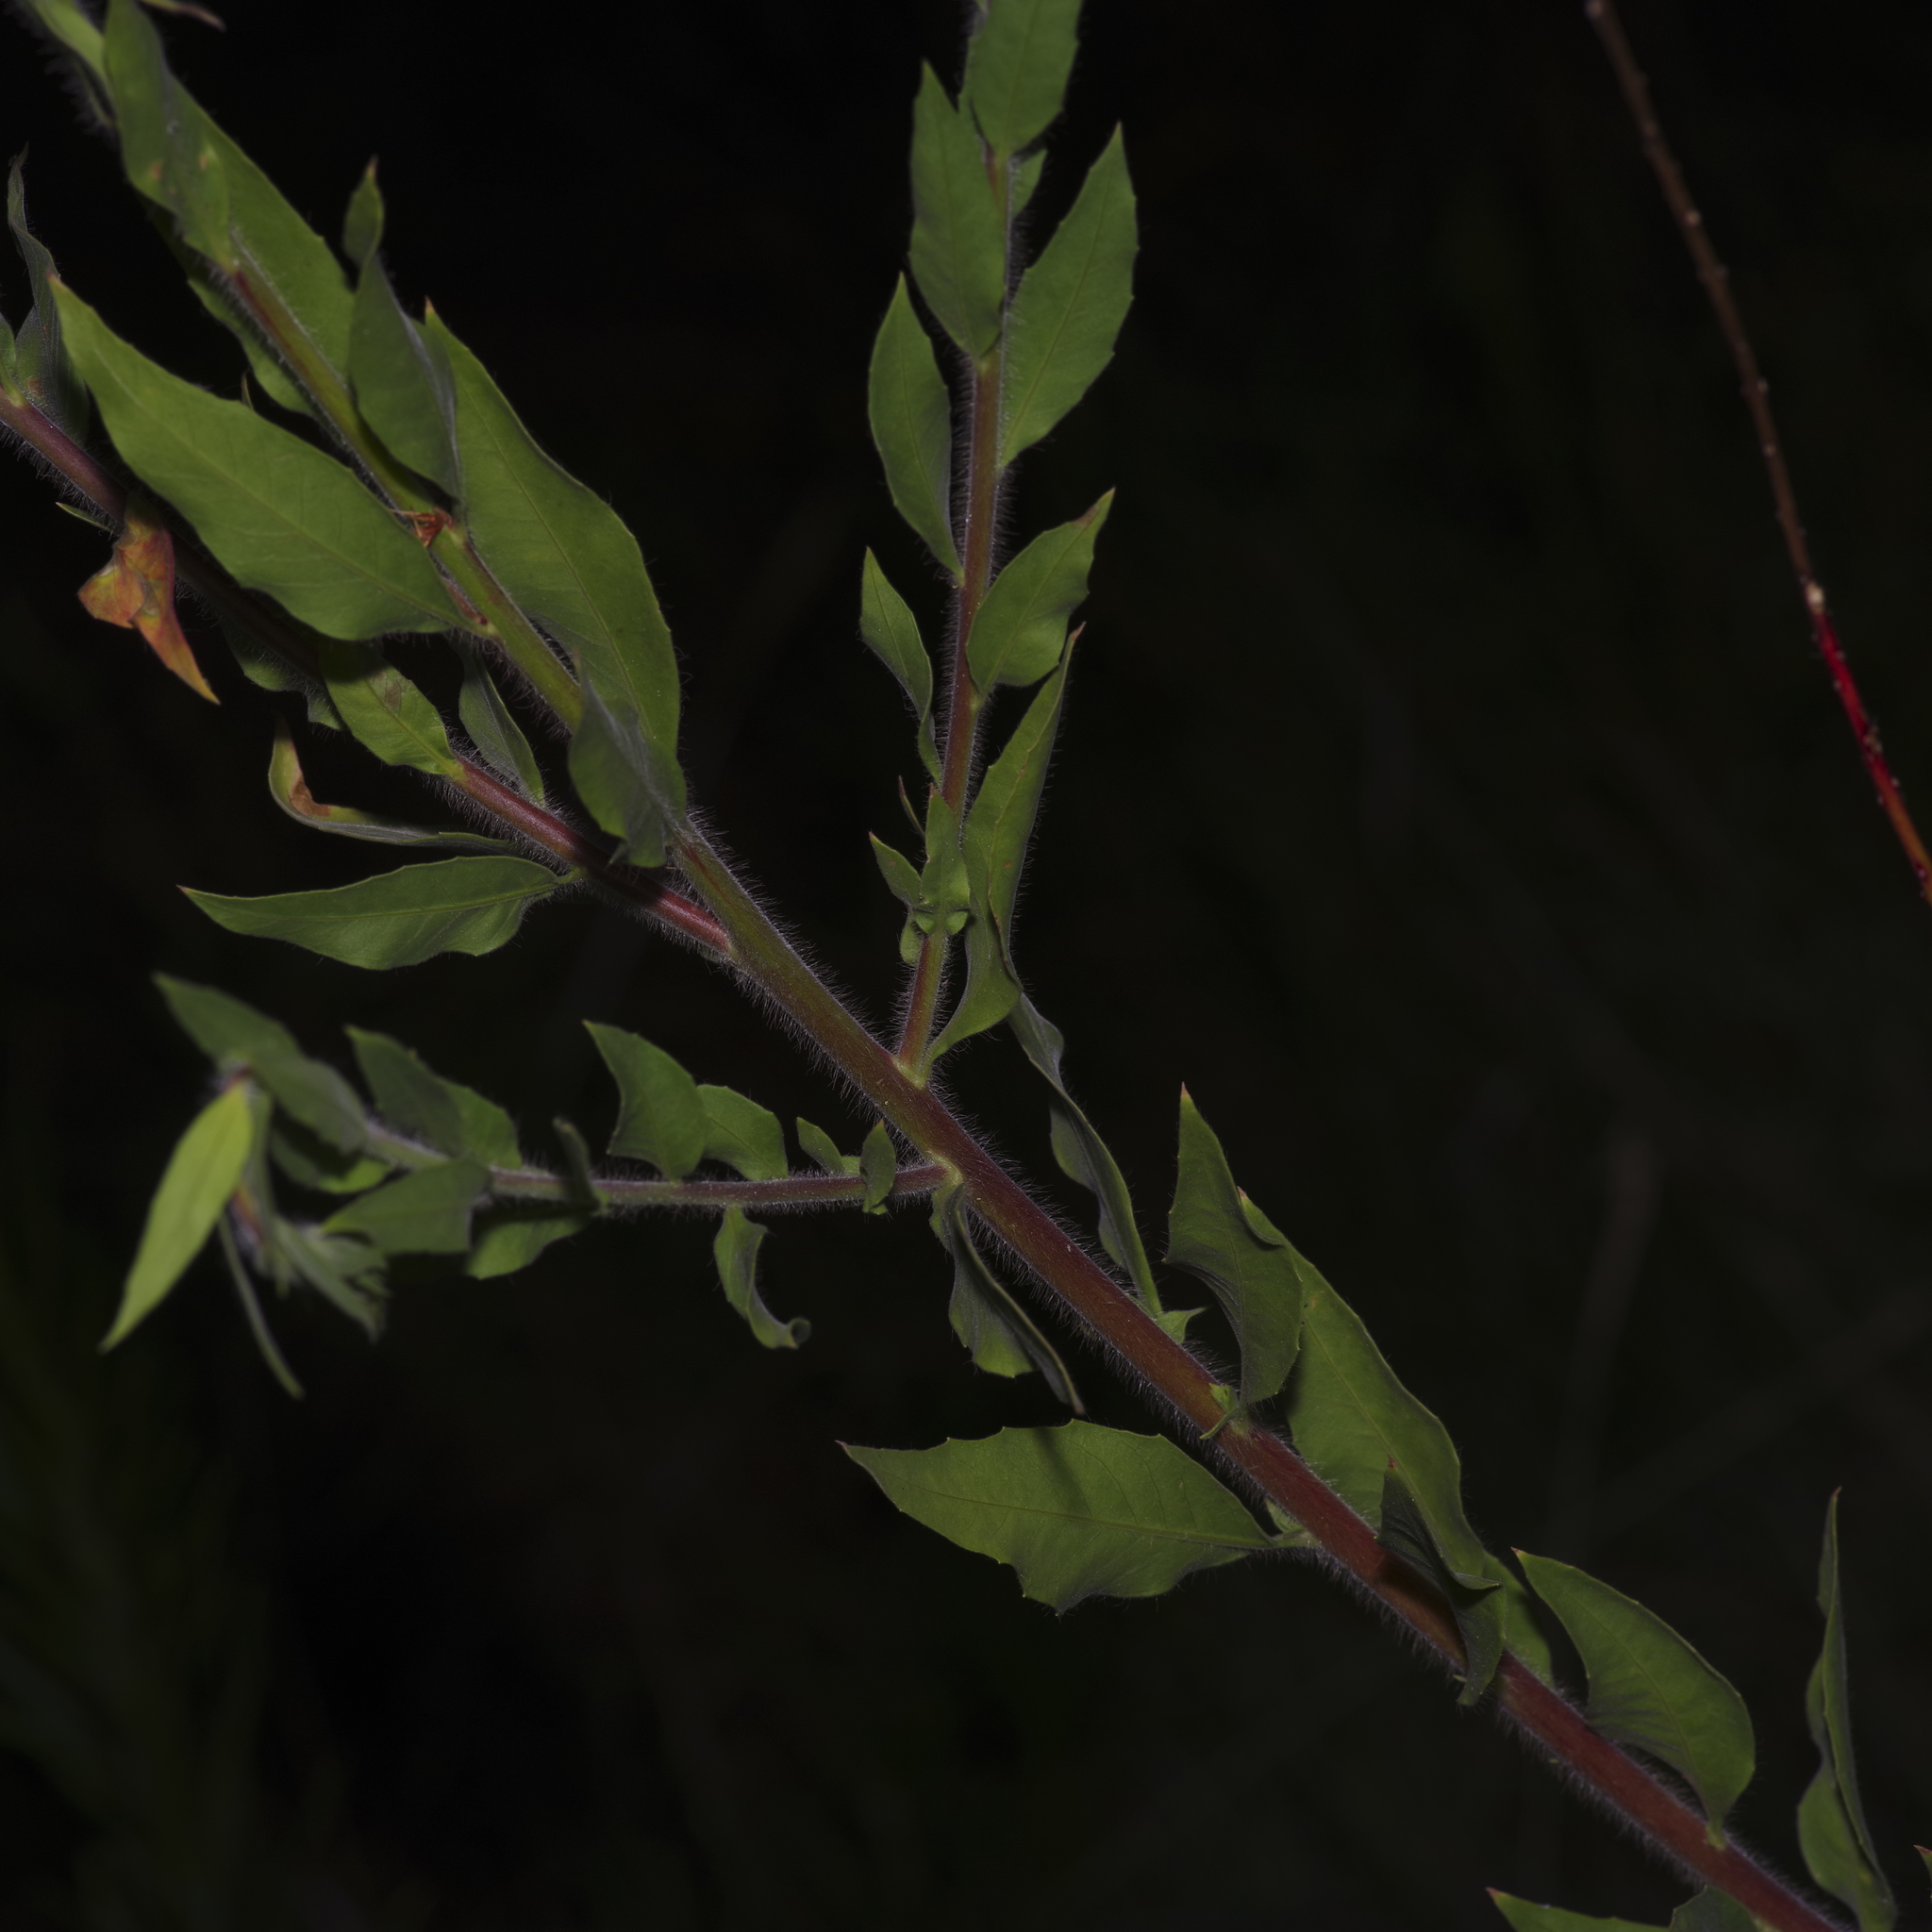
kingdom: Plantae
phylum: Tracheophyta
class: Magnoliopsida
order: Myrtales
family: Onagraceae
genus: Oenothera
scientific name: Oenothera curtiflora
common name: Velvetweed
